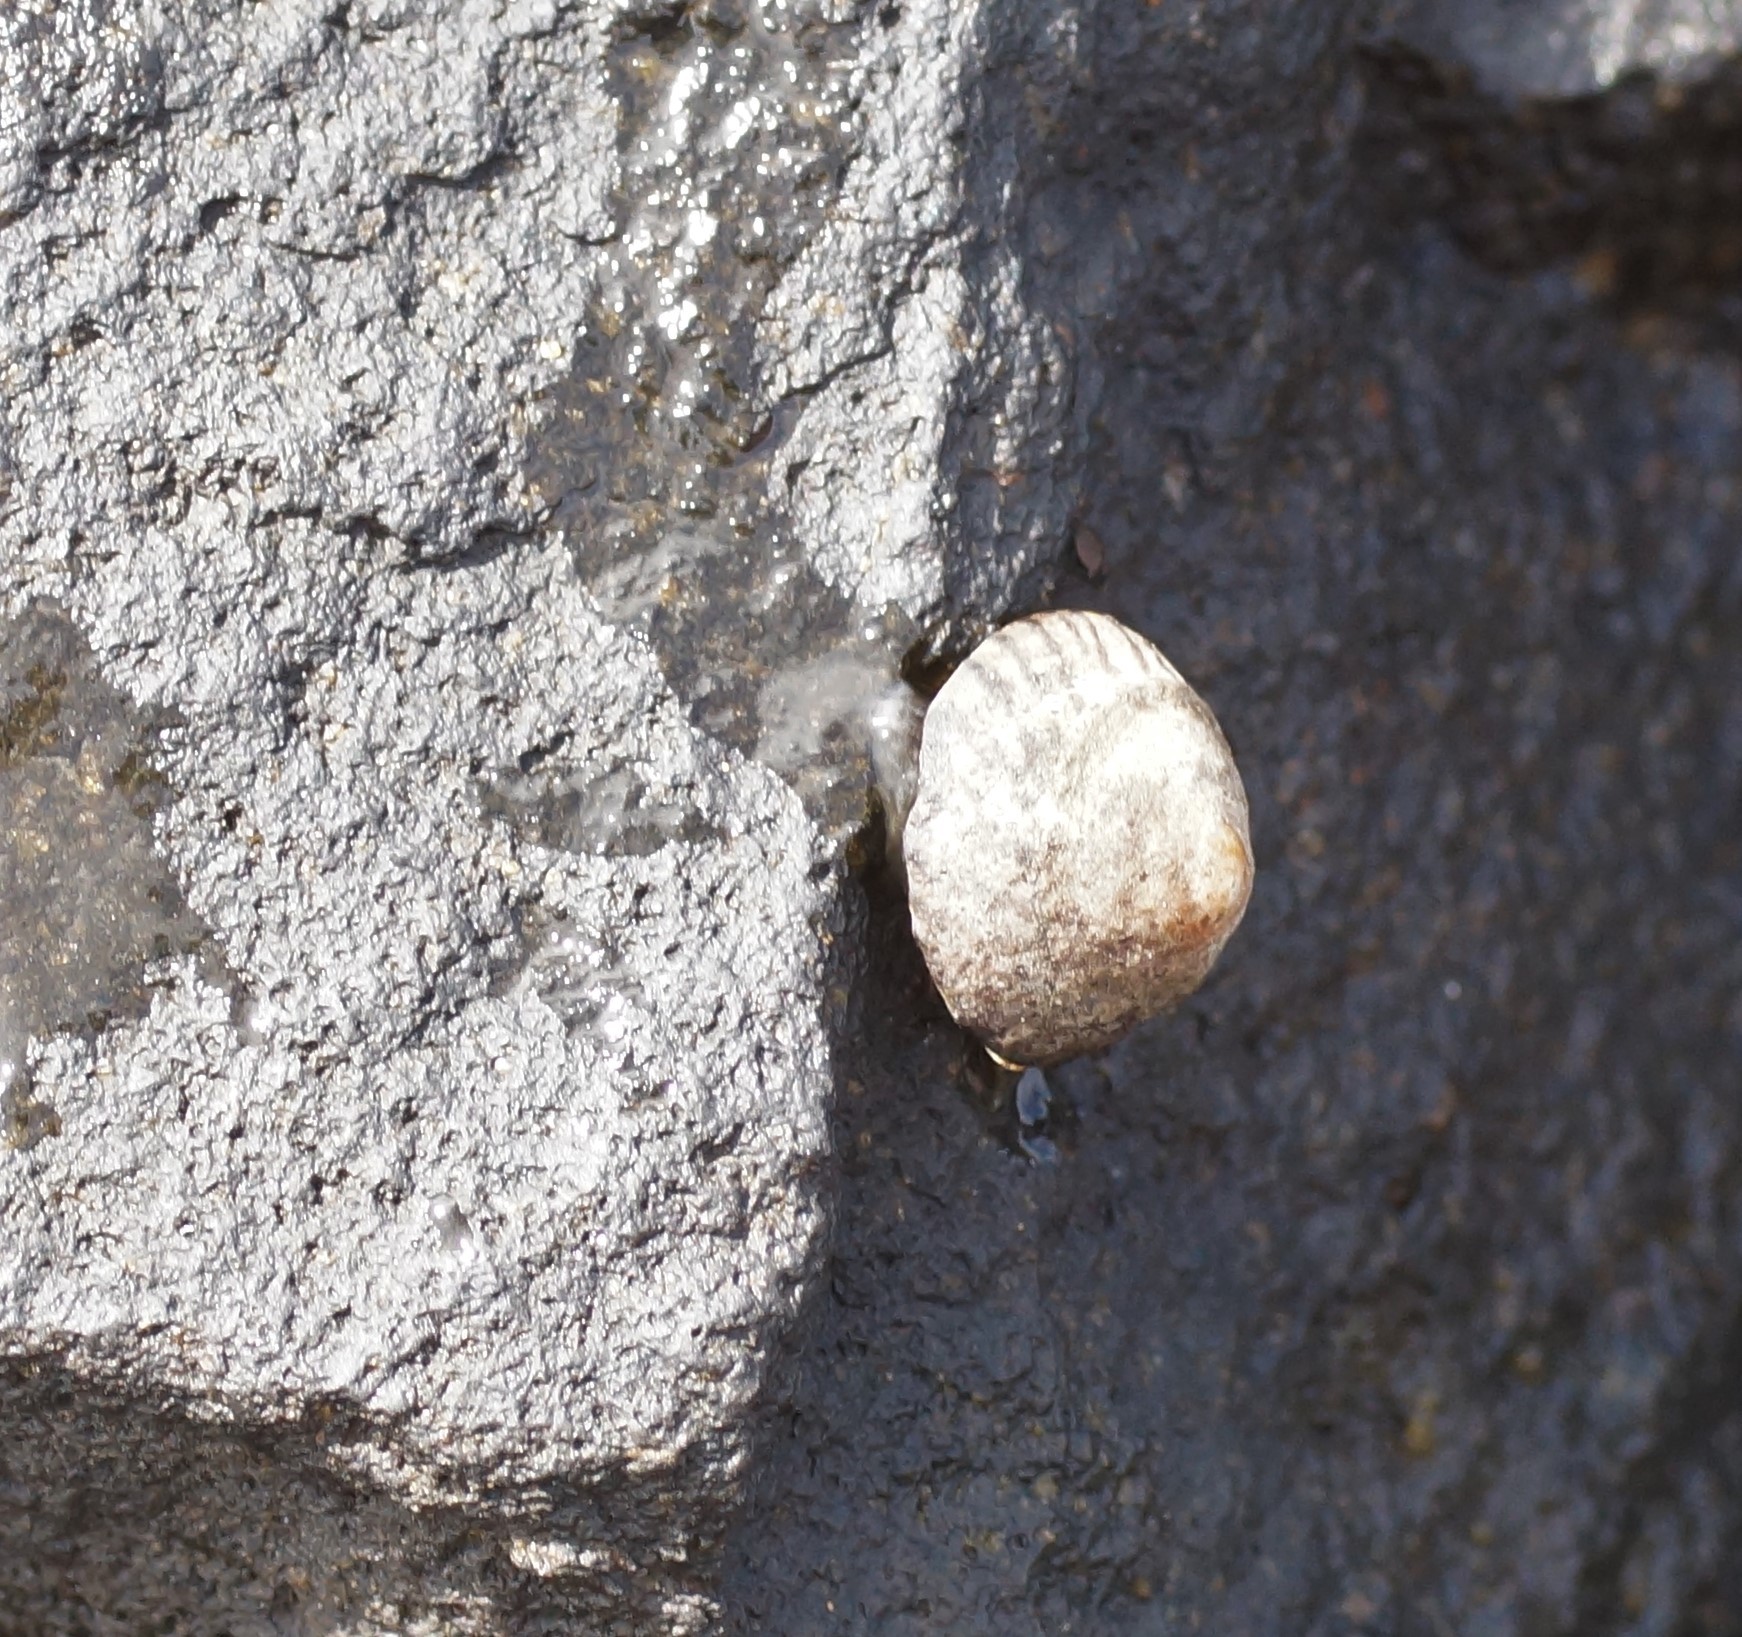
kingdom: Animalia
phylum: Mollusca
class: Gastropoda
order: Littorinimorpha
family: Littorinidae
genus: Bembicium
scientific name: Bembicium nanum
